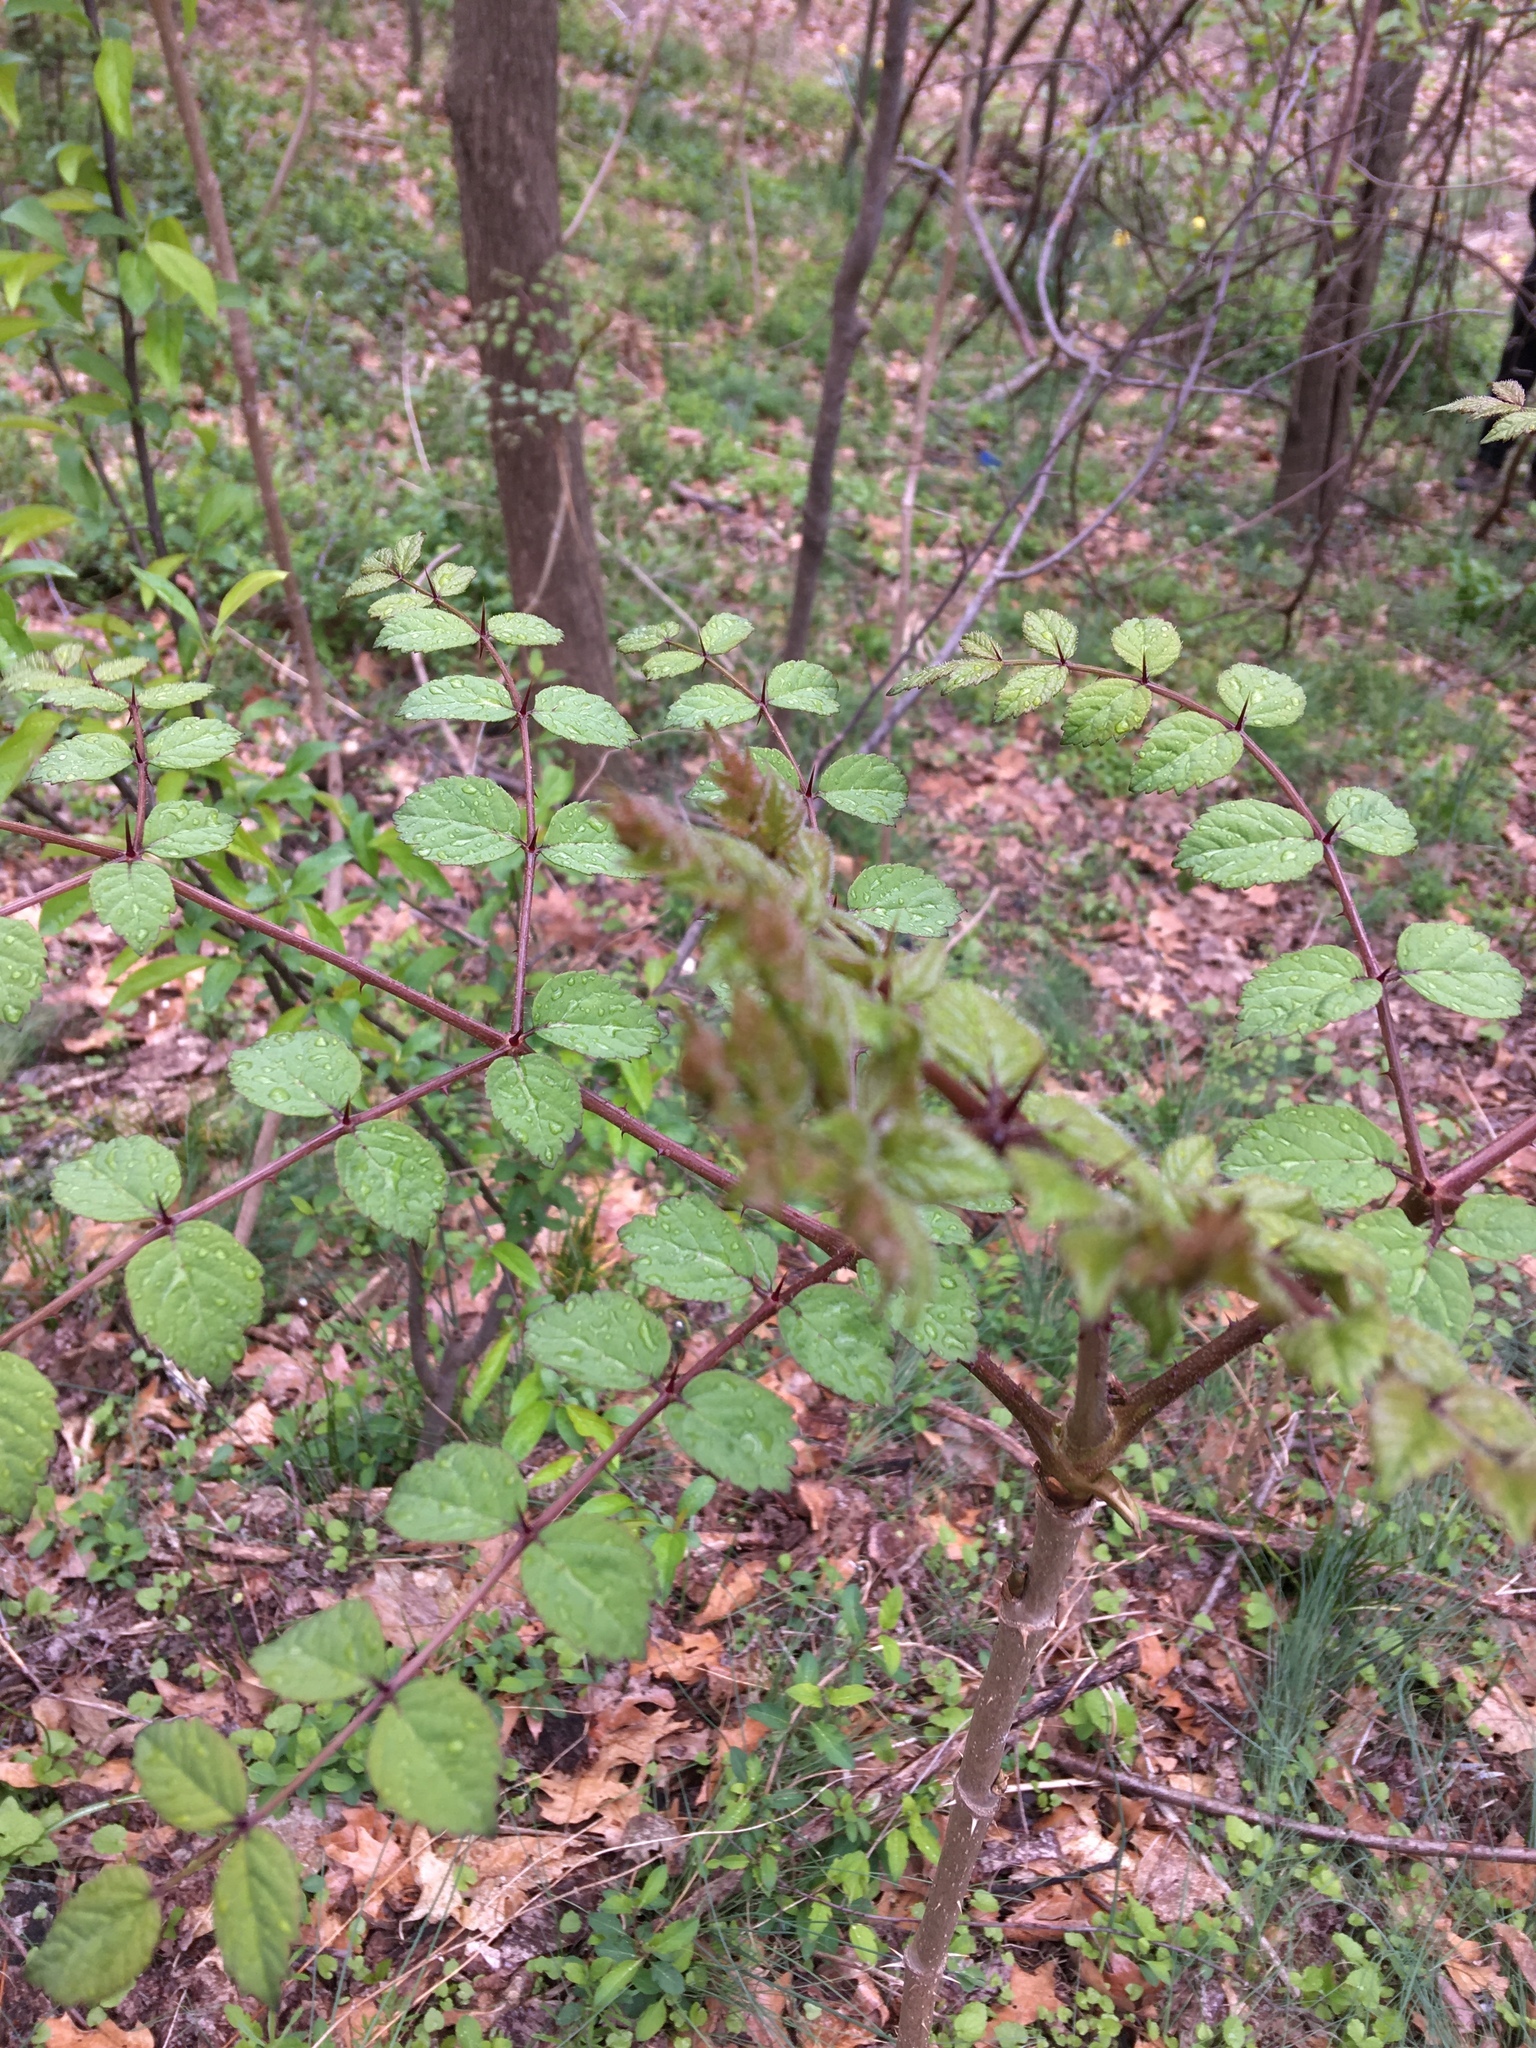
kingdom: Plantae
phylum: Tracheophyta
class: Magnoliopsida
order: Apiales
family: Araliaceae
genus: Aralia
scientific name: Aralia elata
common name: Japanese angelica-tree
